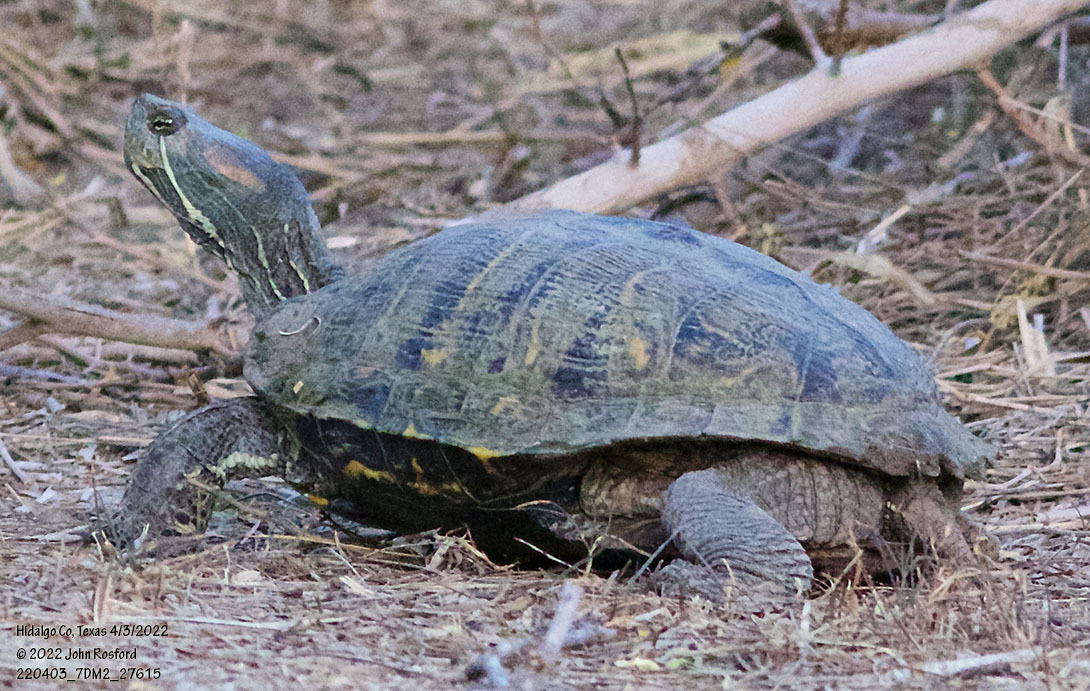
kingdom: Animalia
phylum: Chordata
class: Testudines
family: Emydidae
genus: Trachemys
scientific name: Trachemys scripta
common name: Slider
